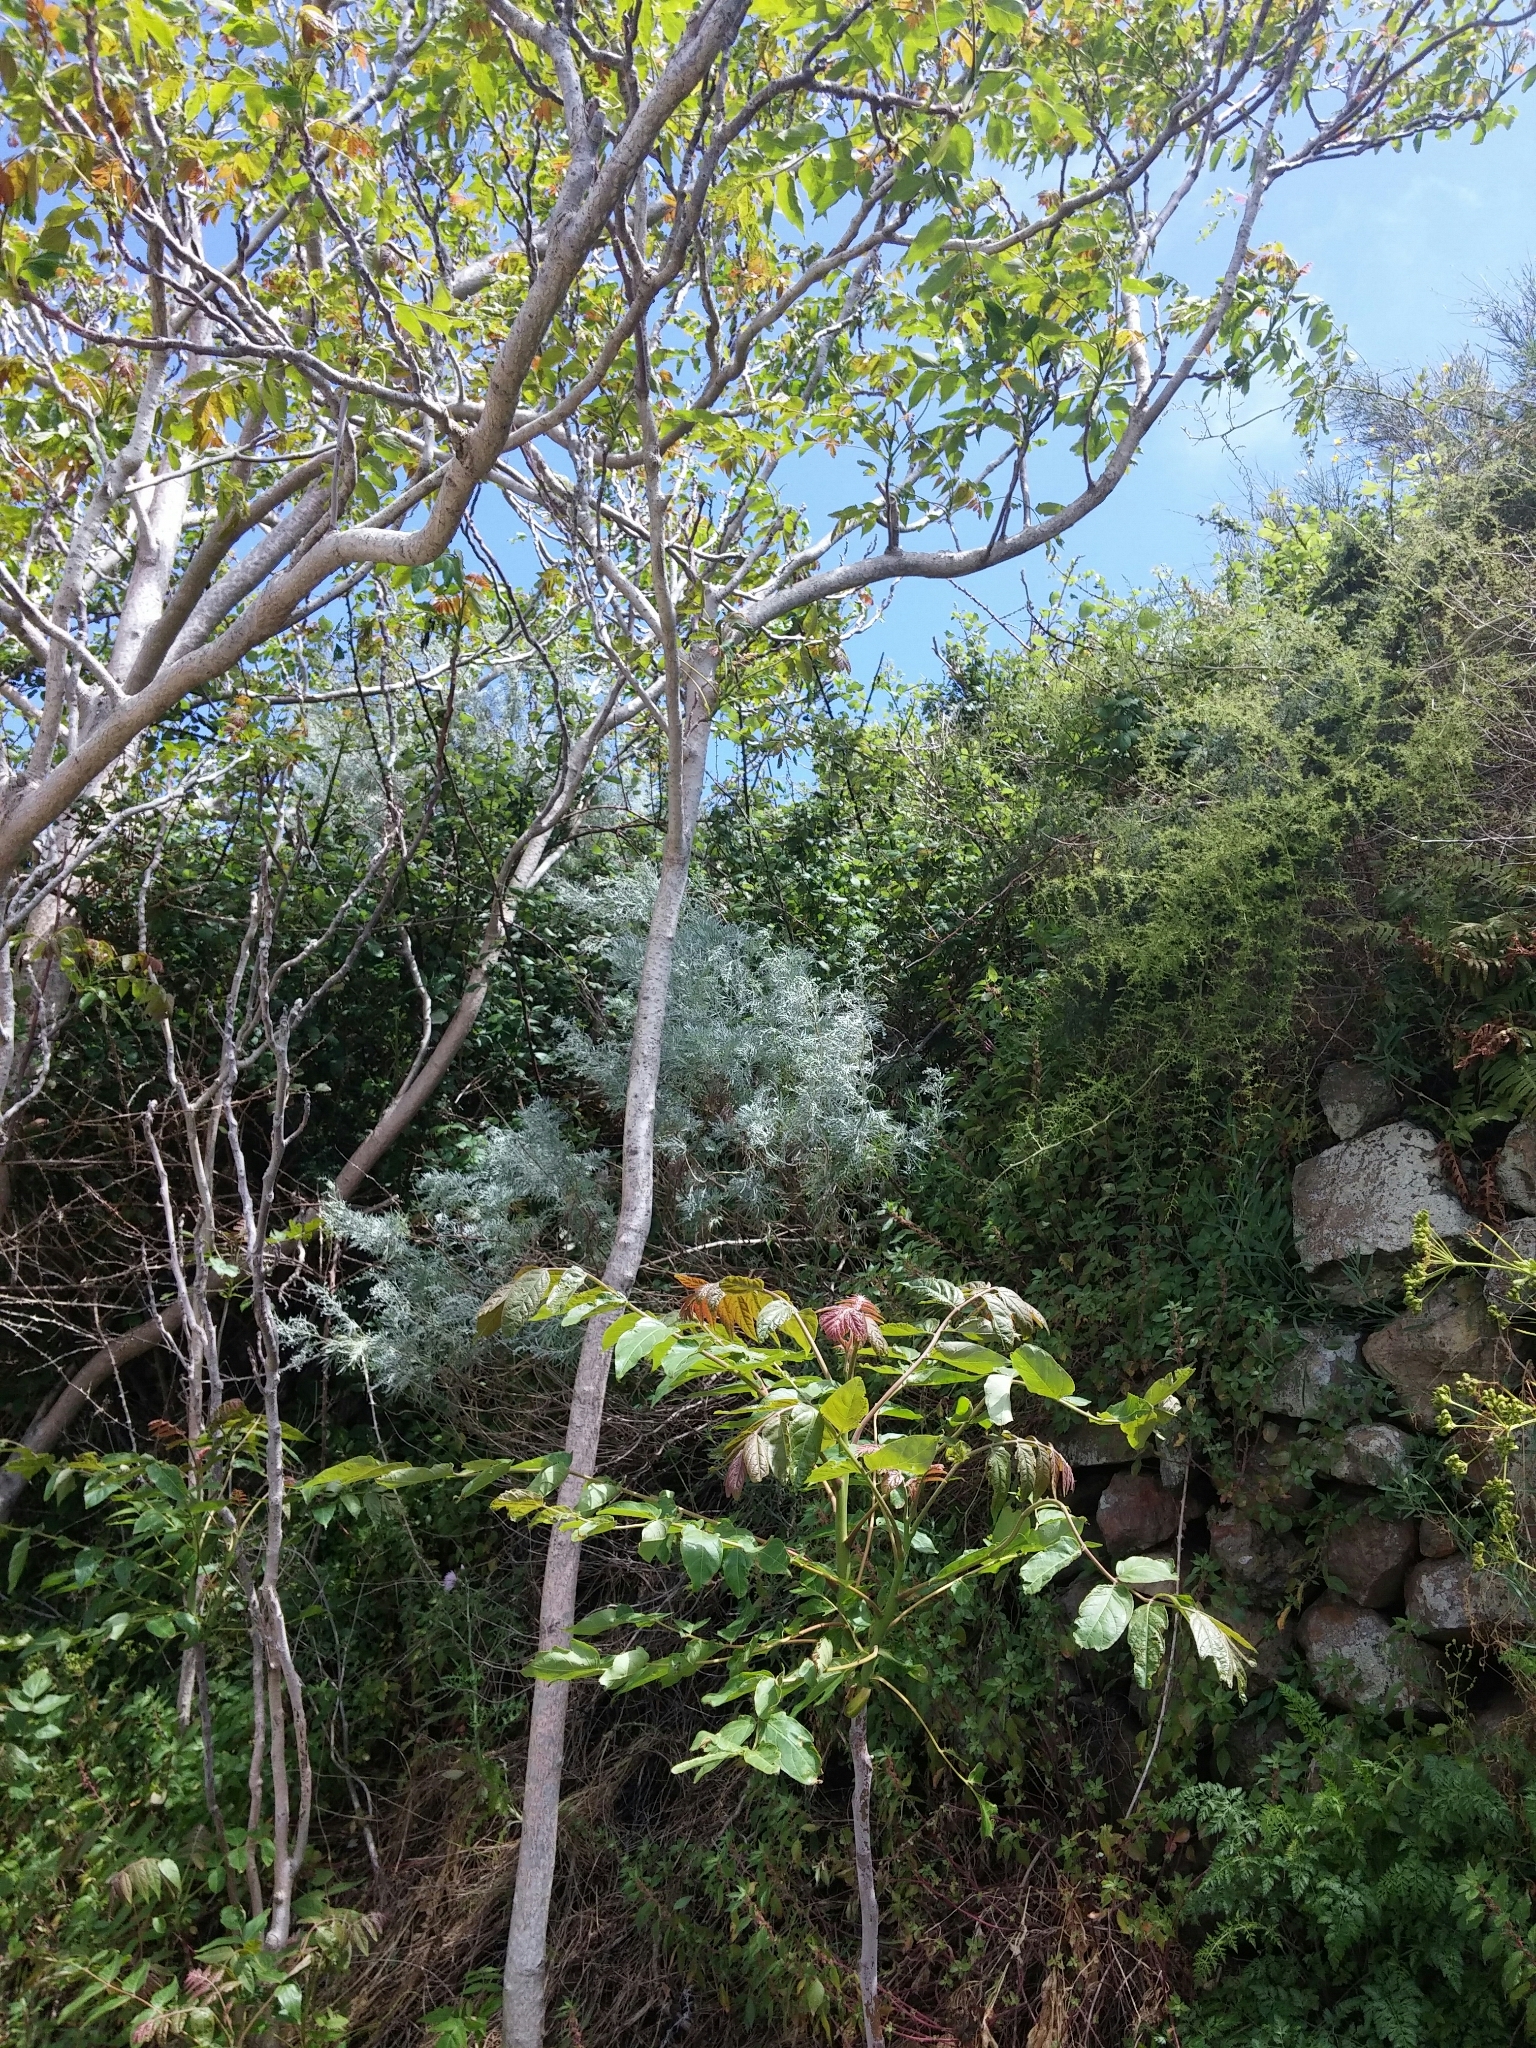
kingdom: Plantae
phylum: Tracheophyta
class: Magnoliopsida
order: Sapindales
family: Simaroubaceae
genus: Ailanthus
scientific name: Ailanthus altissima
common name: Tree-of-heaven
